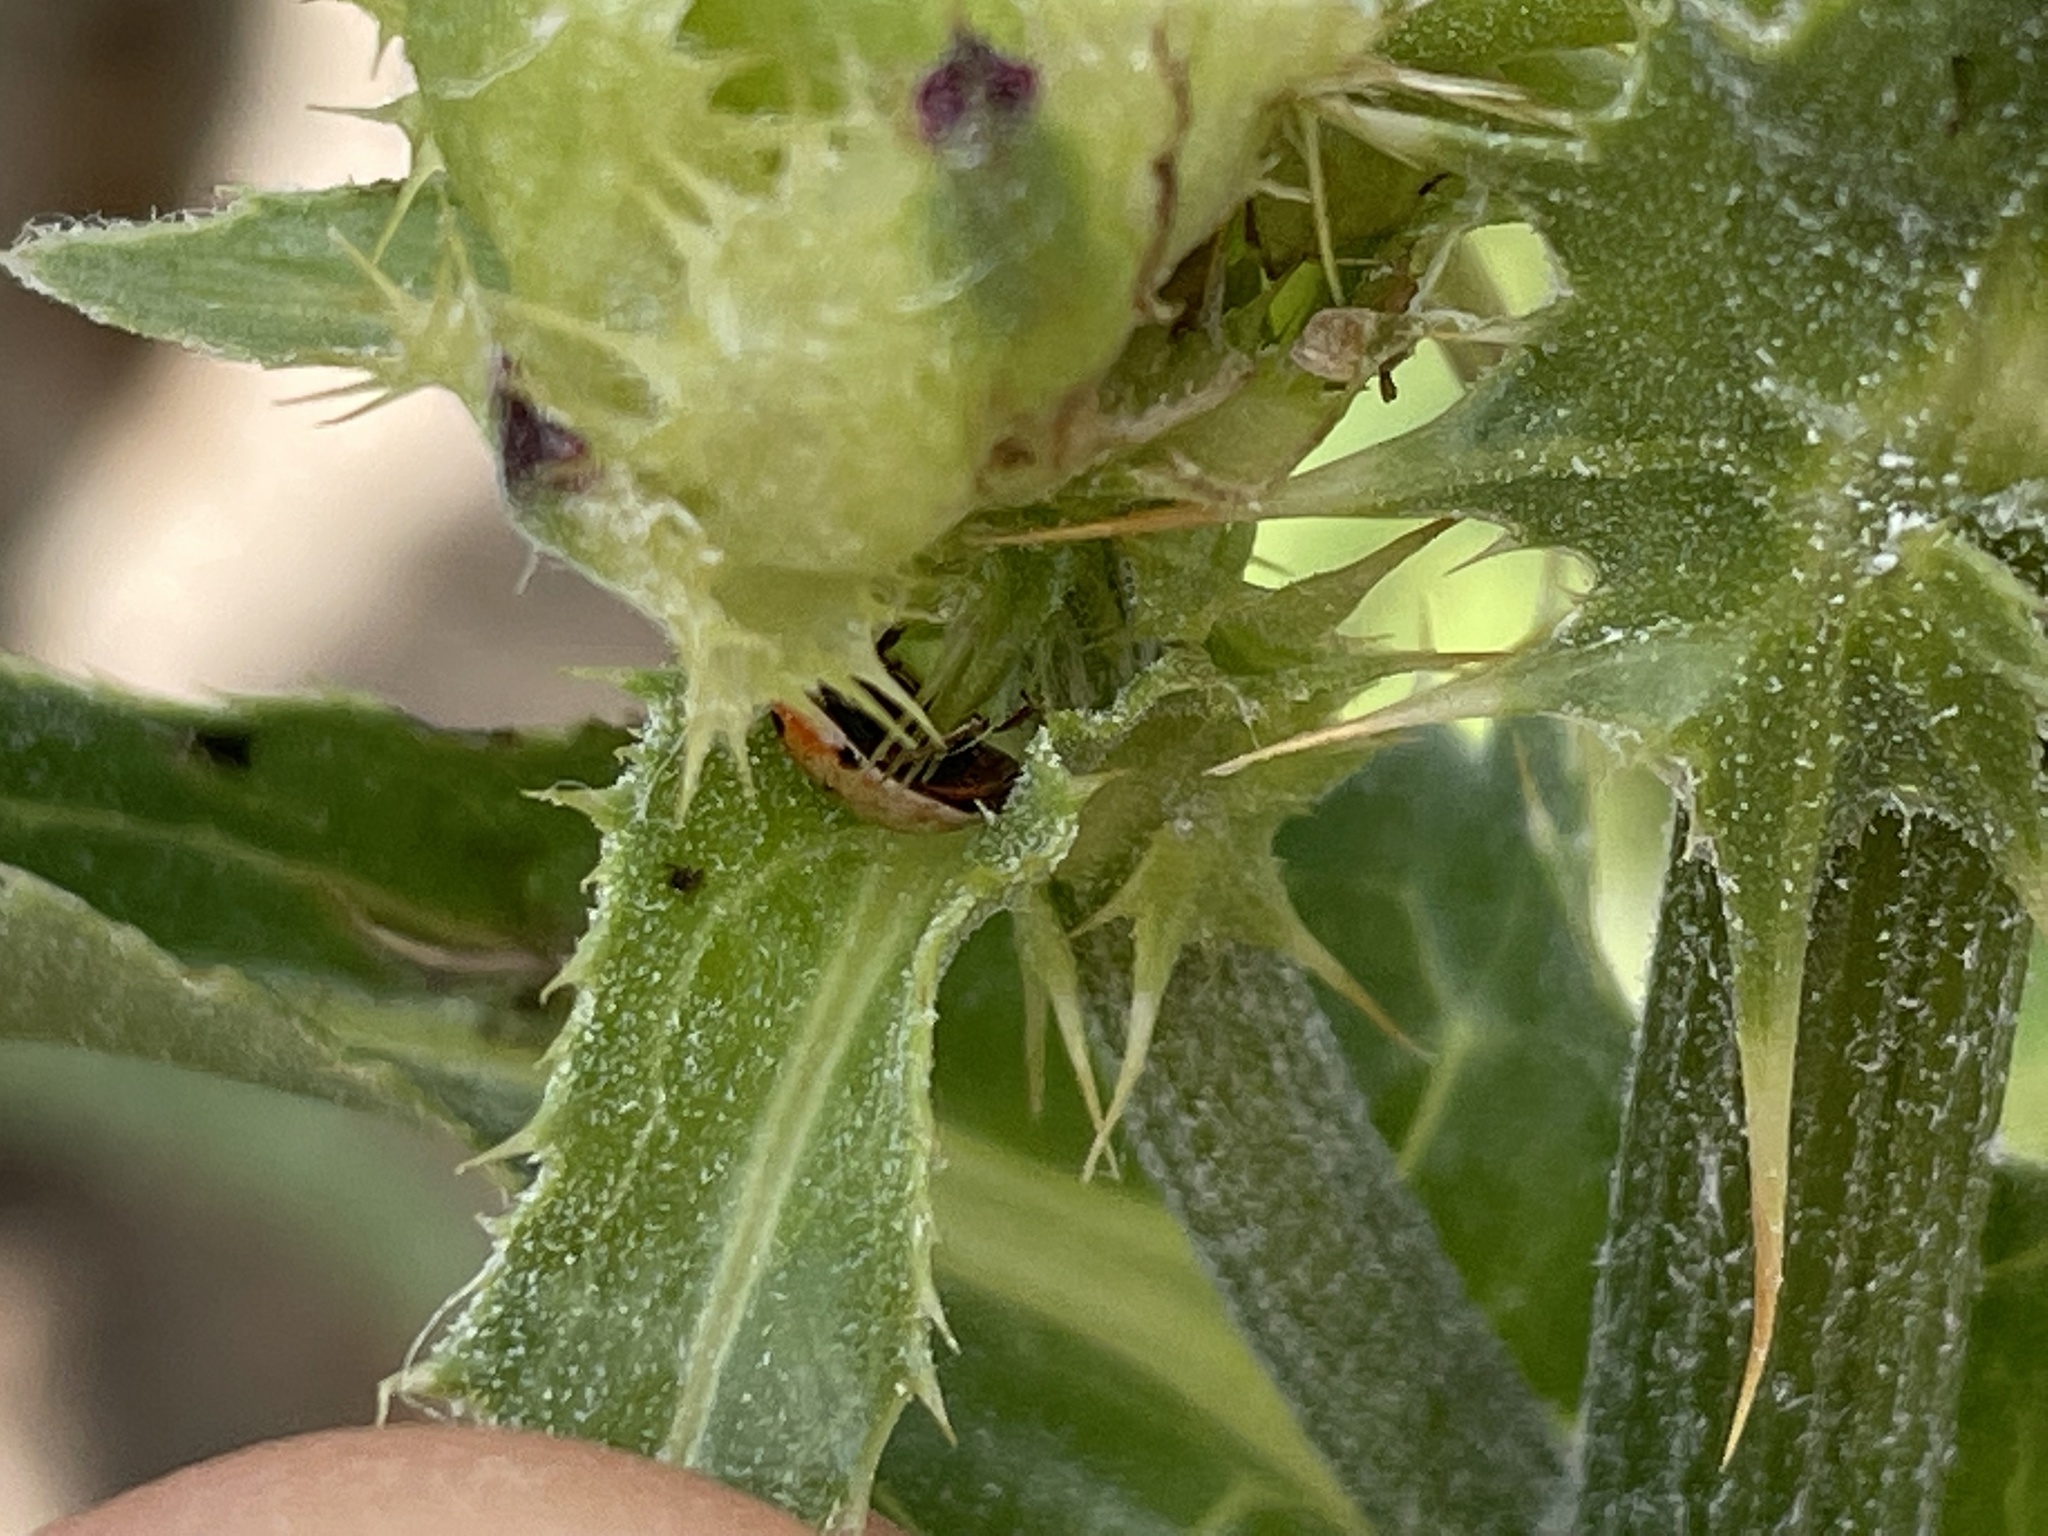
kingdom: Animalia
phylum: Arthropoda
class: Insecta
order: Coleoptera
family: Coccinellidae
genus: Adalia
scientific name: Adalia decempunctata
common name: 10-spot ladybird
